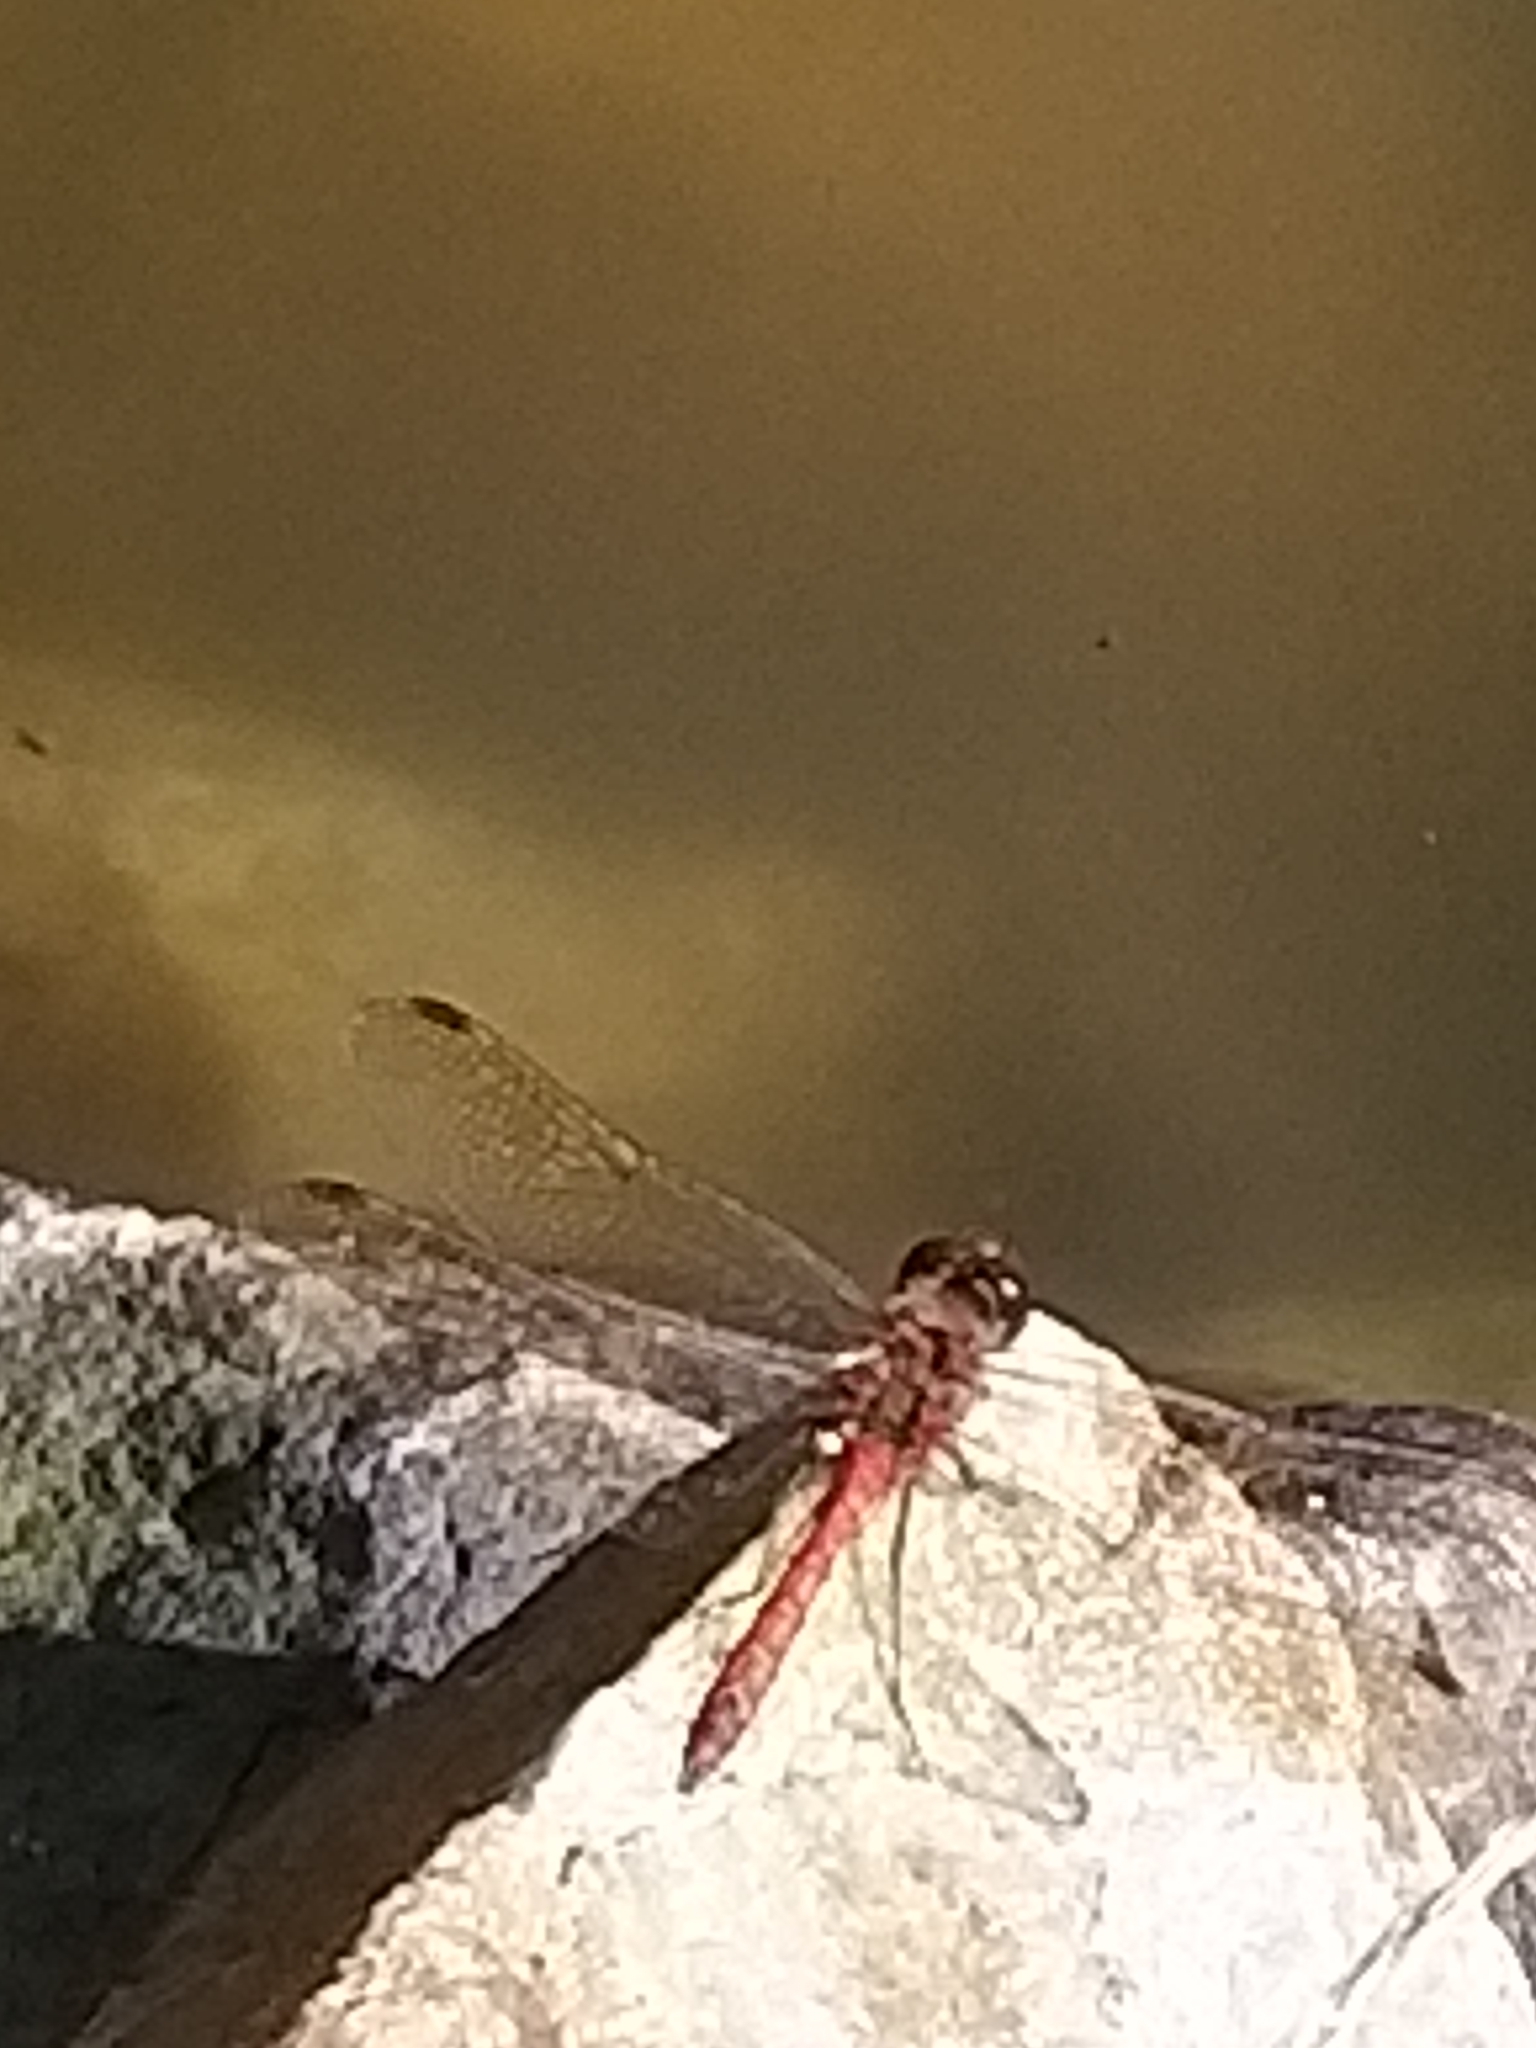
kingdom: Animalia
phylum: Arthropoda
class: Insecta
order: Odonata
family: Libellulidae
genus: Sympetrum
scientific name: Sympetrum striolatum
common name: Common darter
